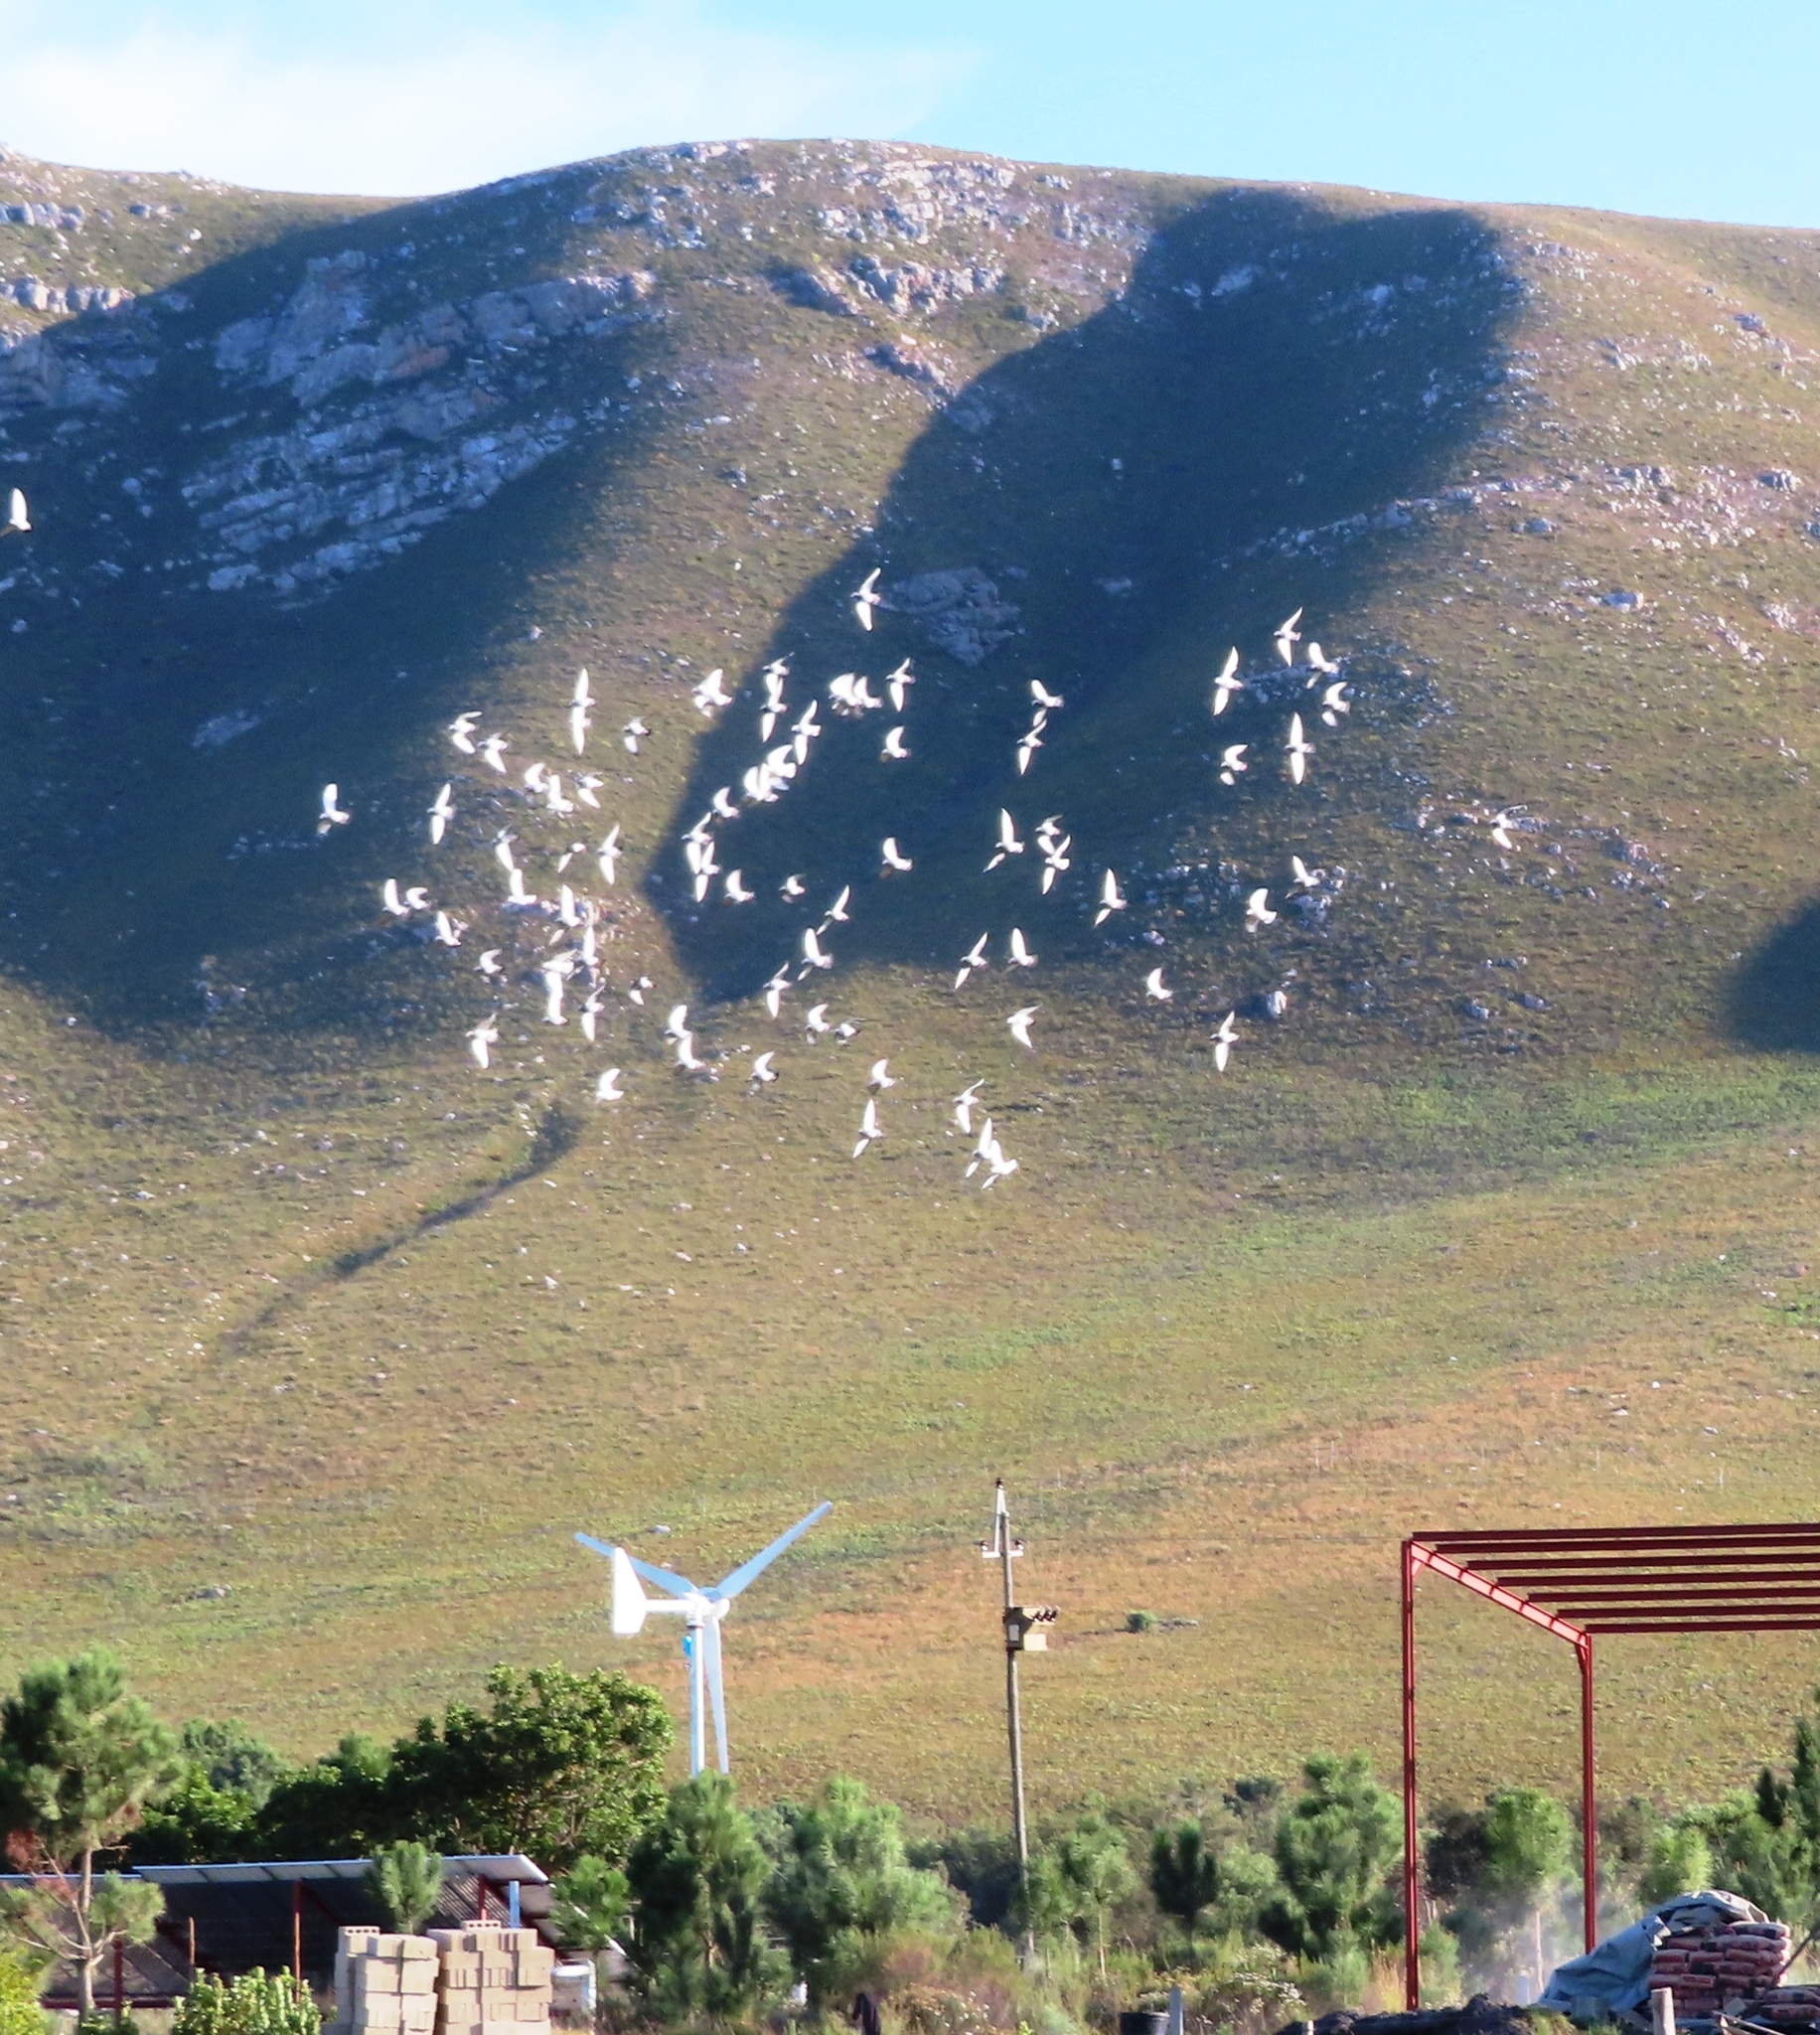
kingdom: Animalia
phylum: Chordata
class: Aves
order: Columbiformes
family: Columbidae
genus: Columba
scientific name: Columba livia
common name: Rock pigeon
